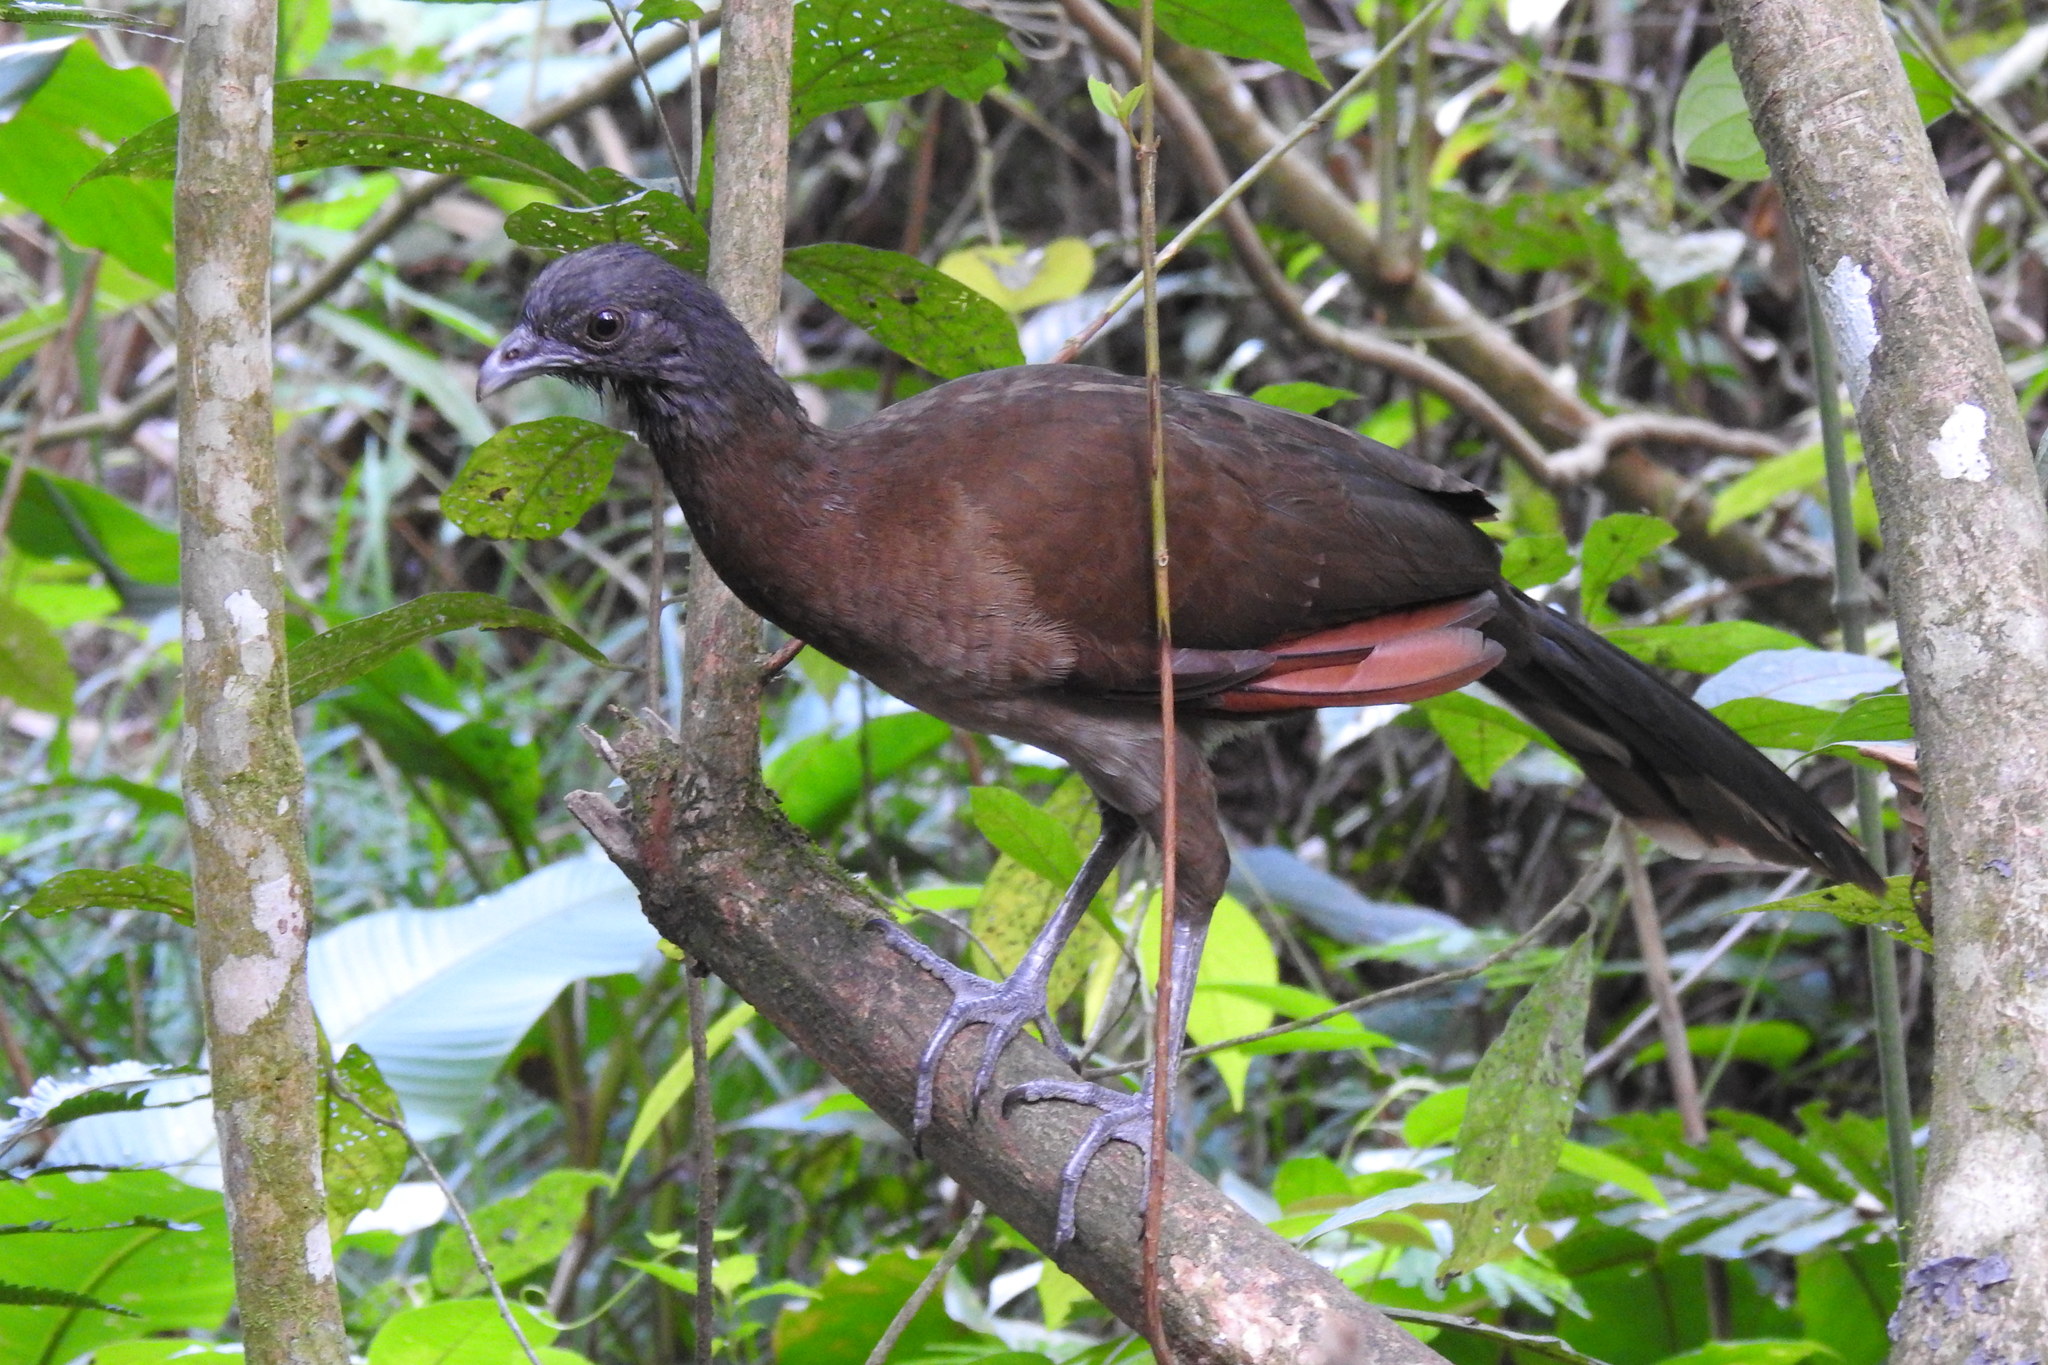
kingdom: Animalia
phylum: Chordata
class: Aves
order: Galliformes
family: Cracidae
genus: Ortalis
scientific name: Ortalis cinereiceps
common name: Grey-headed chachalaca
